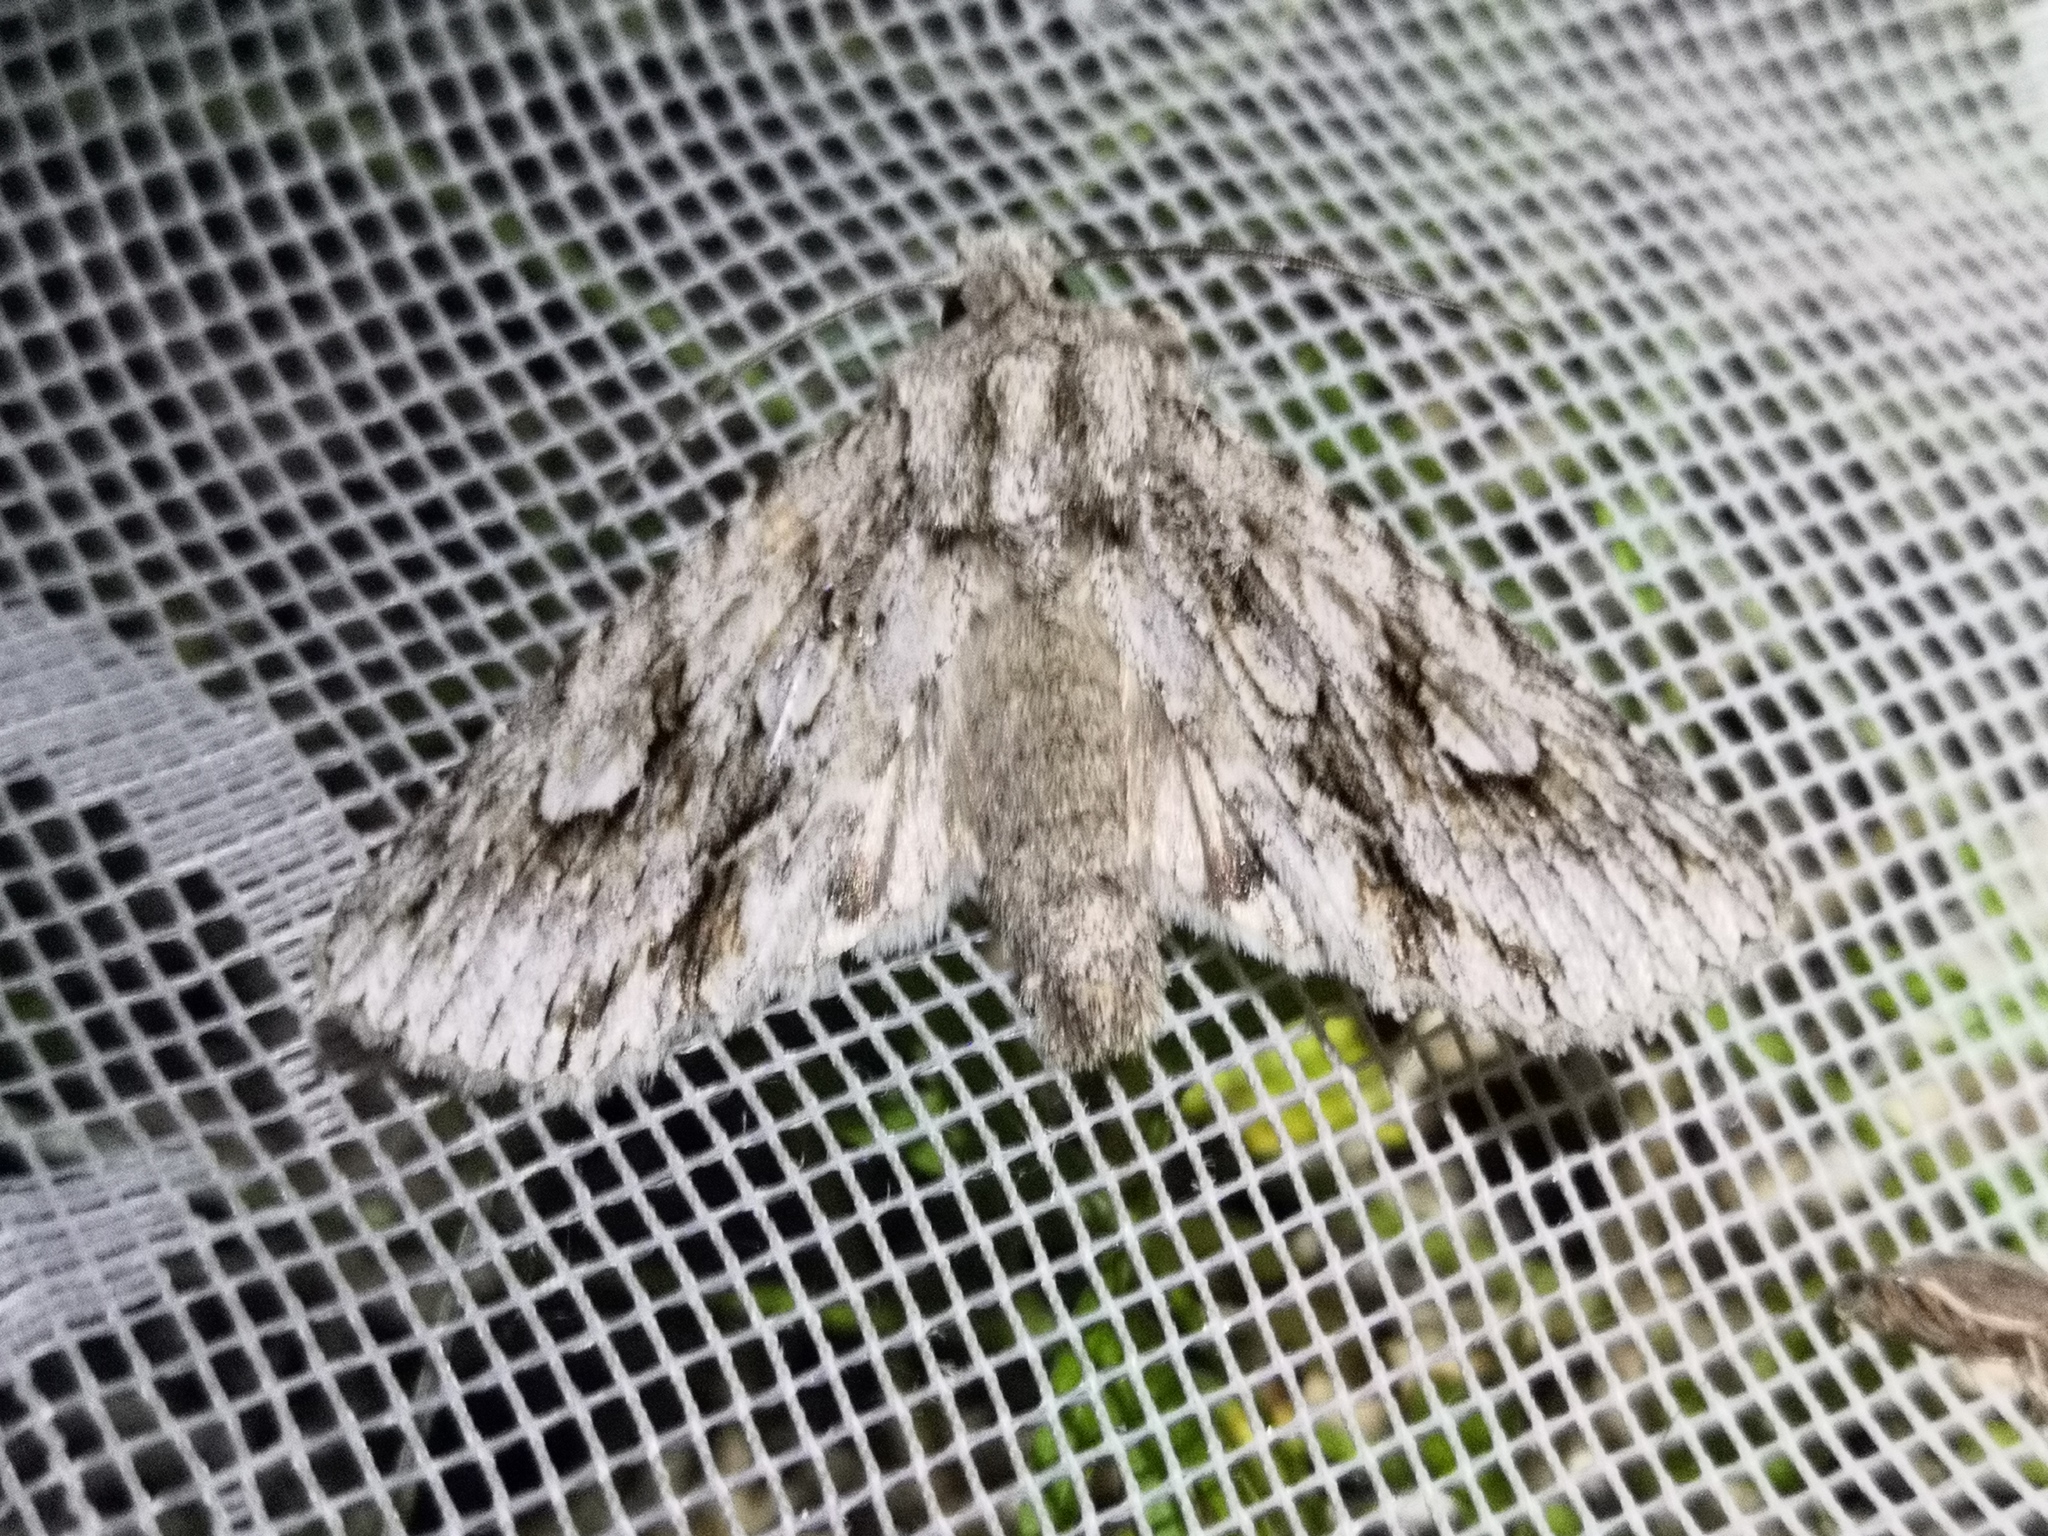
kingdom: Animalia
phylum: Arthropoda
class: Insecta
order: Lepidoptera
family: Noctuidae
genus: Meganephria
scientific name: Meganephria bimaculosa
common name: Double-spot brocade
